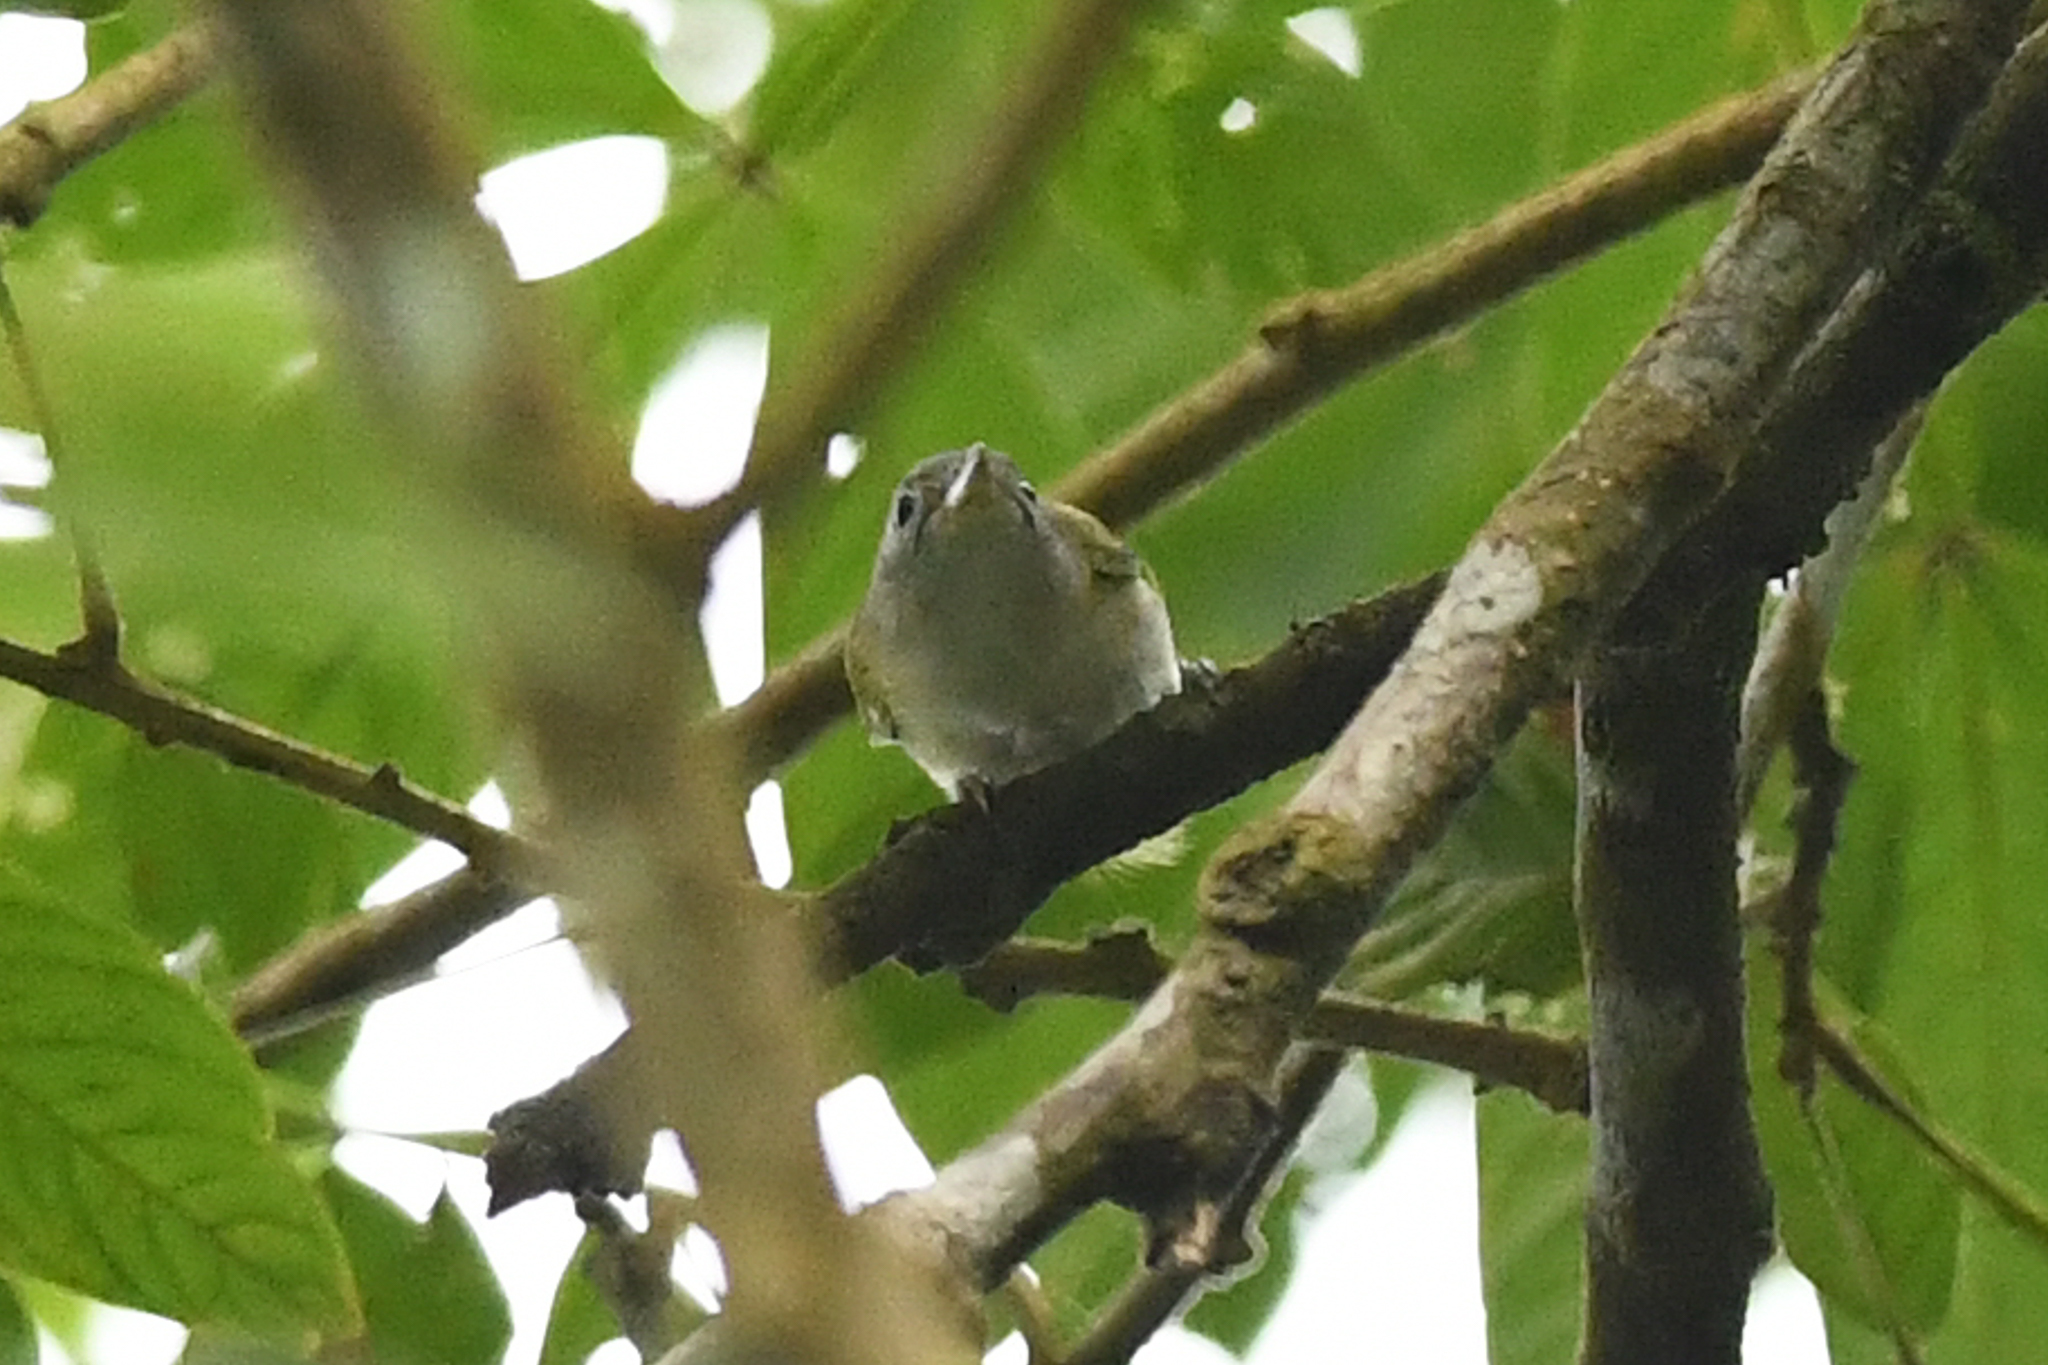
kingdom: Animalia
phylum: Chordata
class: Aves
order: Passeriformes
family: Vireonidae
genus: Hylophilus
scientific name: Hylophilus decurtatus
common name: Lesser greenlet
